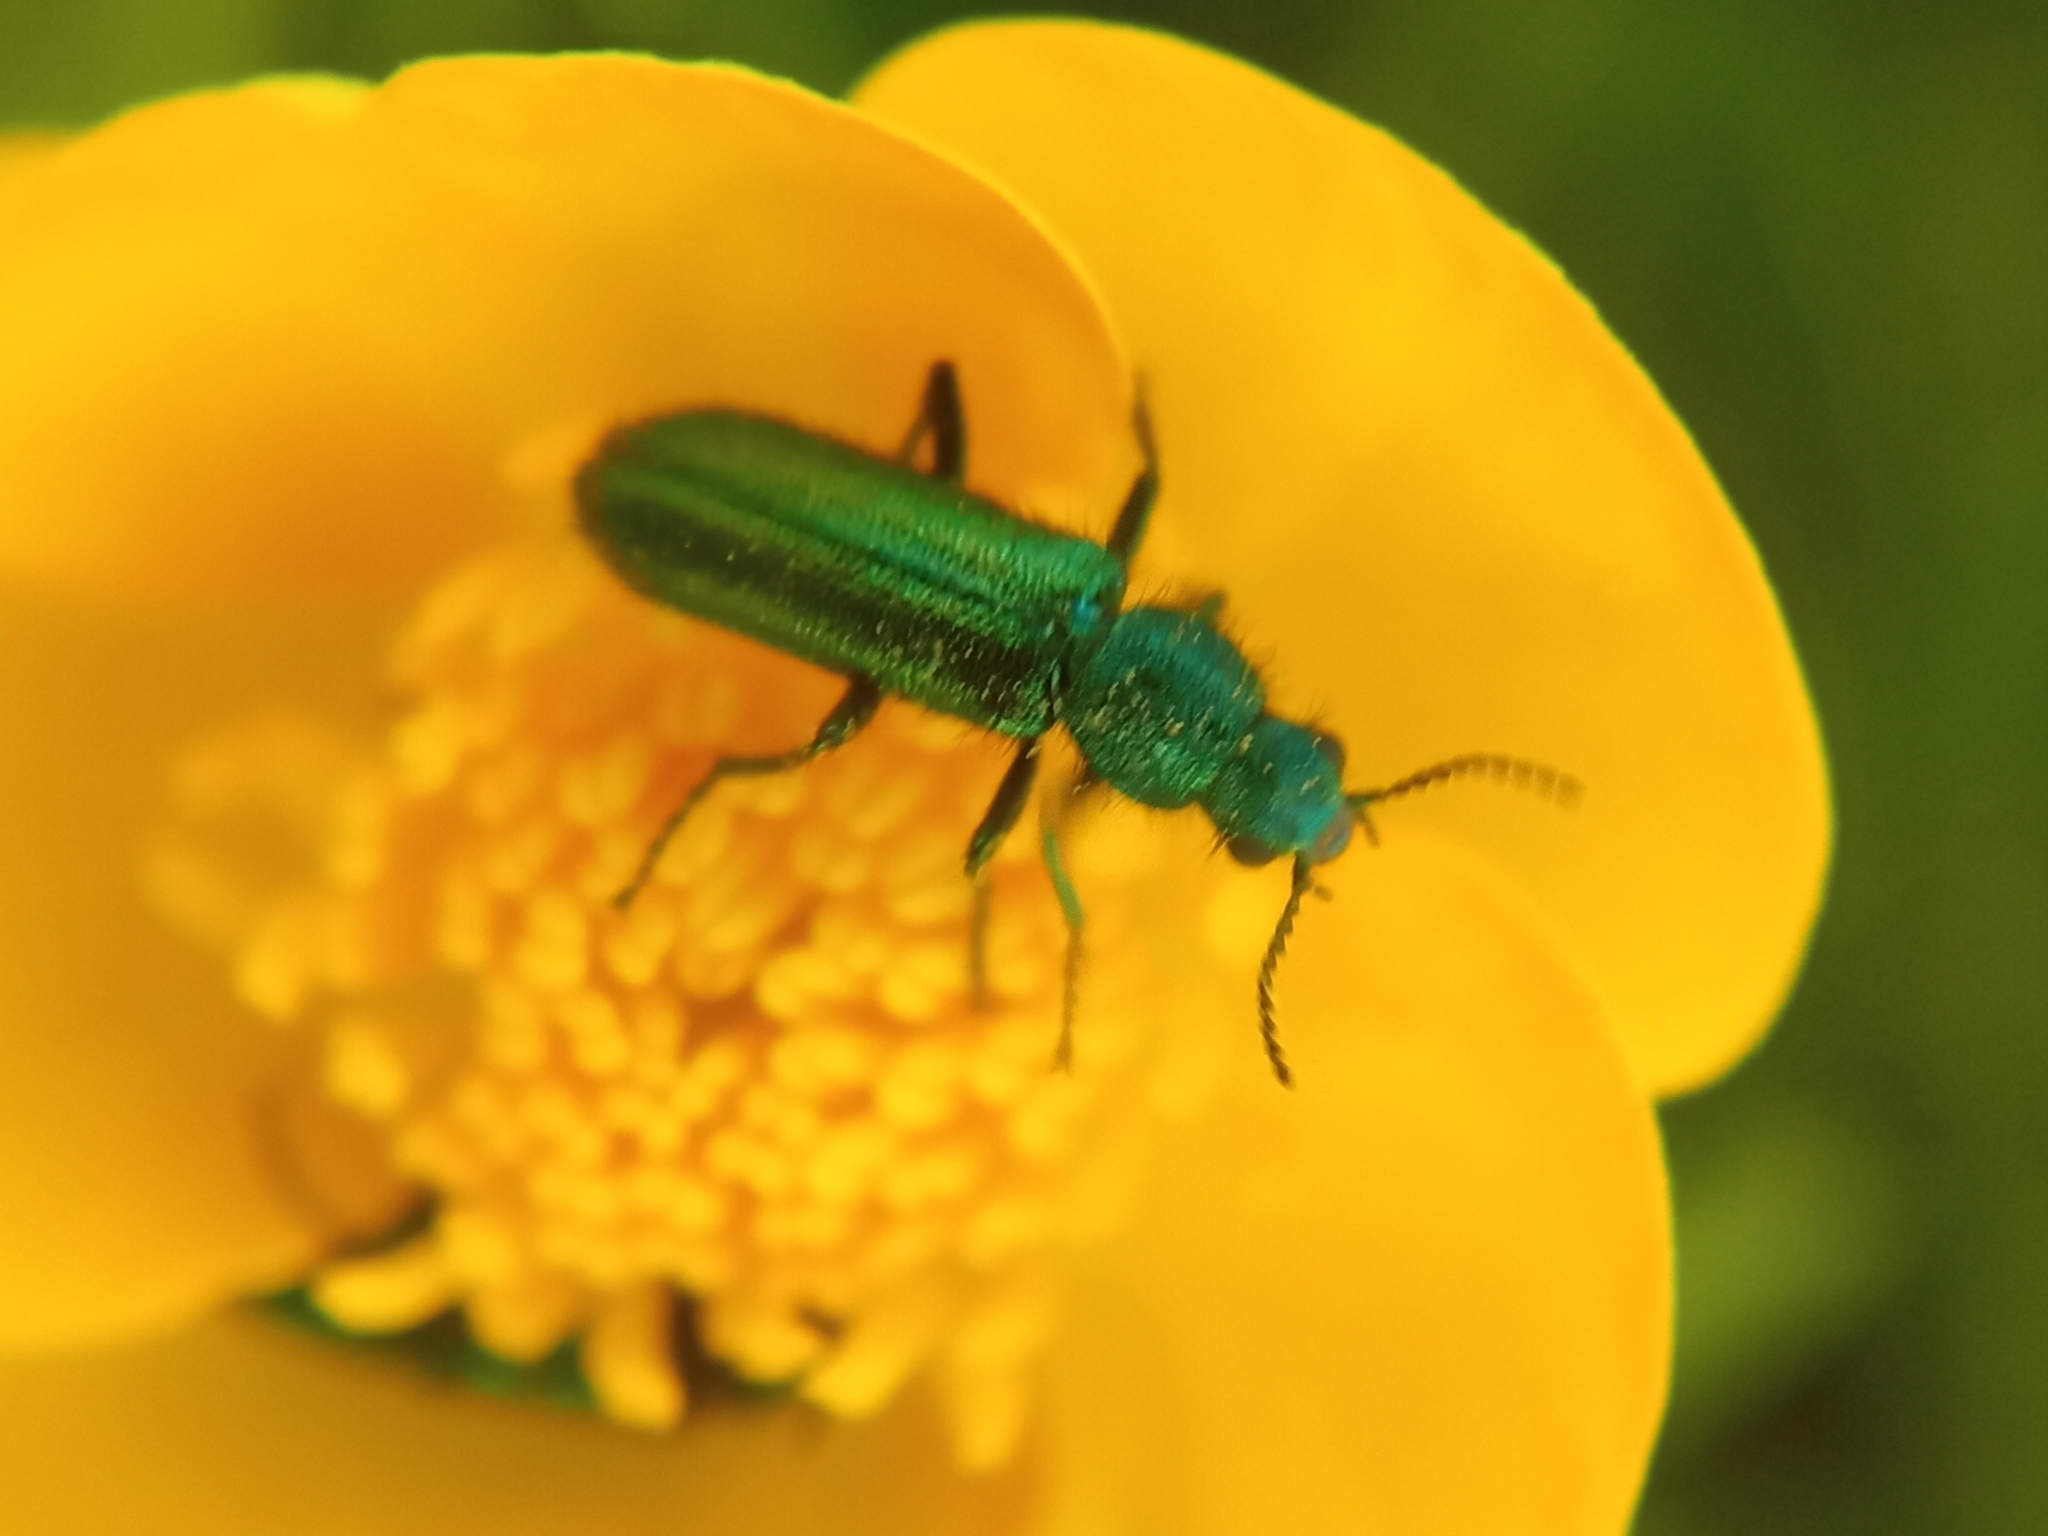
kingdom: Animalia
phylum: Arthropoda
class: Insecta
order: Coleoptera
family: Dasytidae
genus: Psilothrix
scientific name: Psilothrix viridicoerulea
